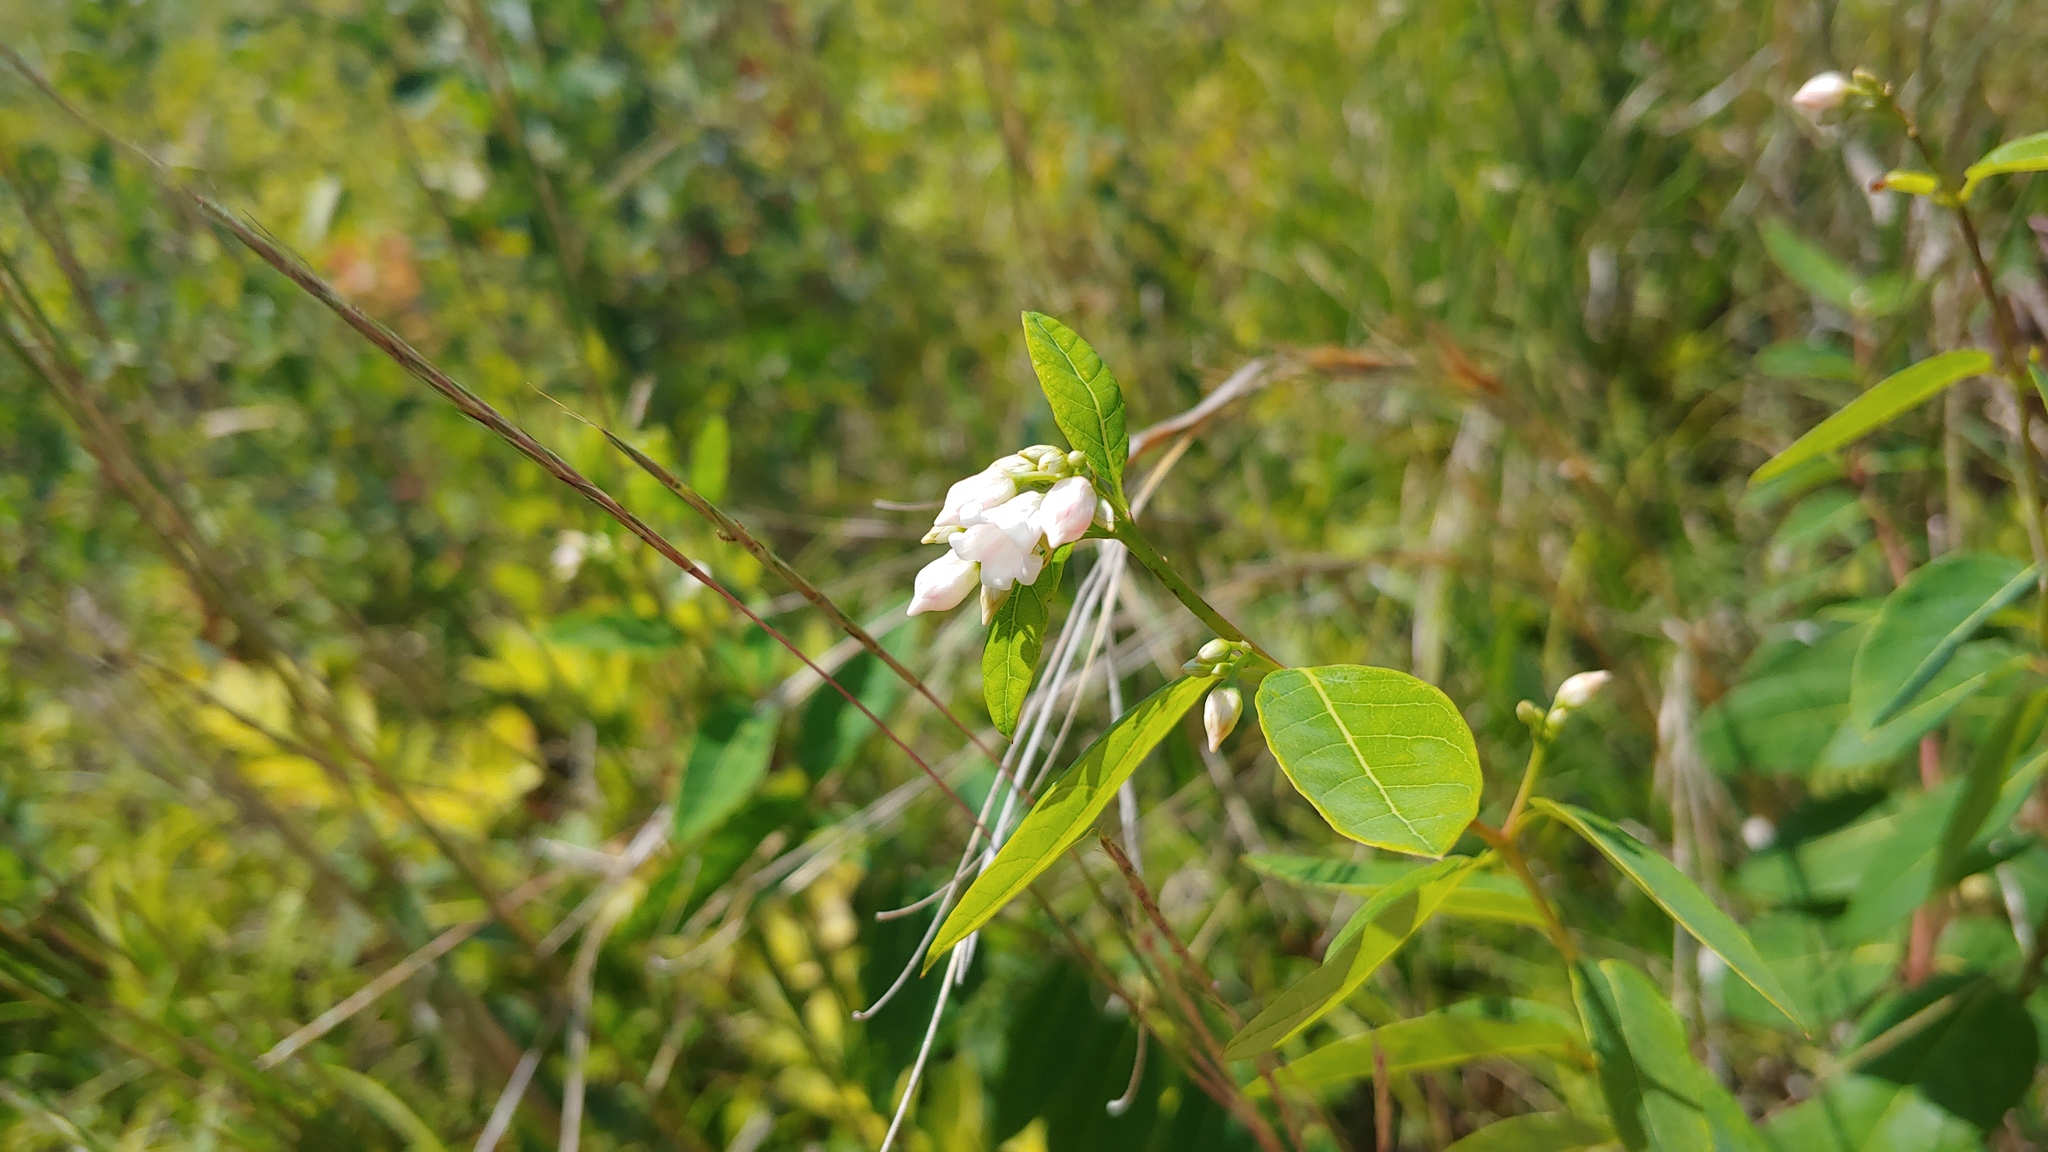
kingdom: Plantae
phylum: Tracheophyta
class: Magnoliopsida
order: Gentianales
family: Apocynaceae
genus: Apocynum
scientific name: Apocynum androsaemifolium
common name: Spreading dogbane
